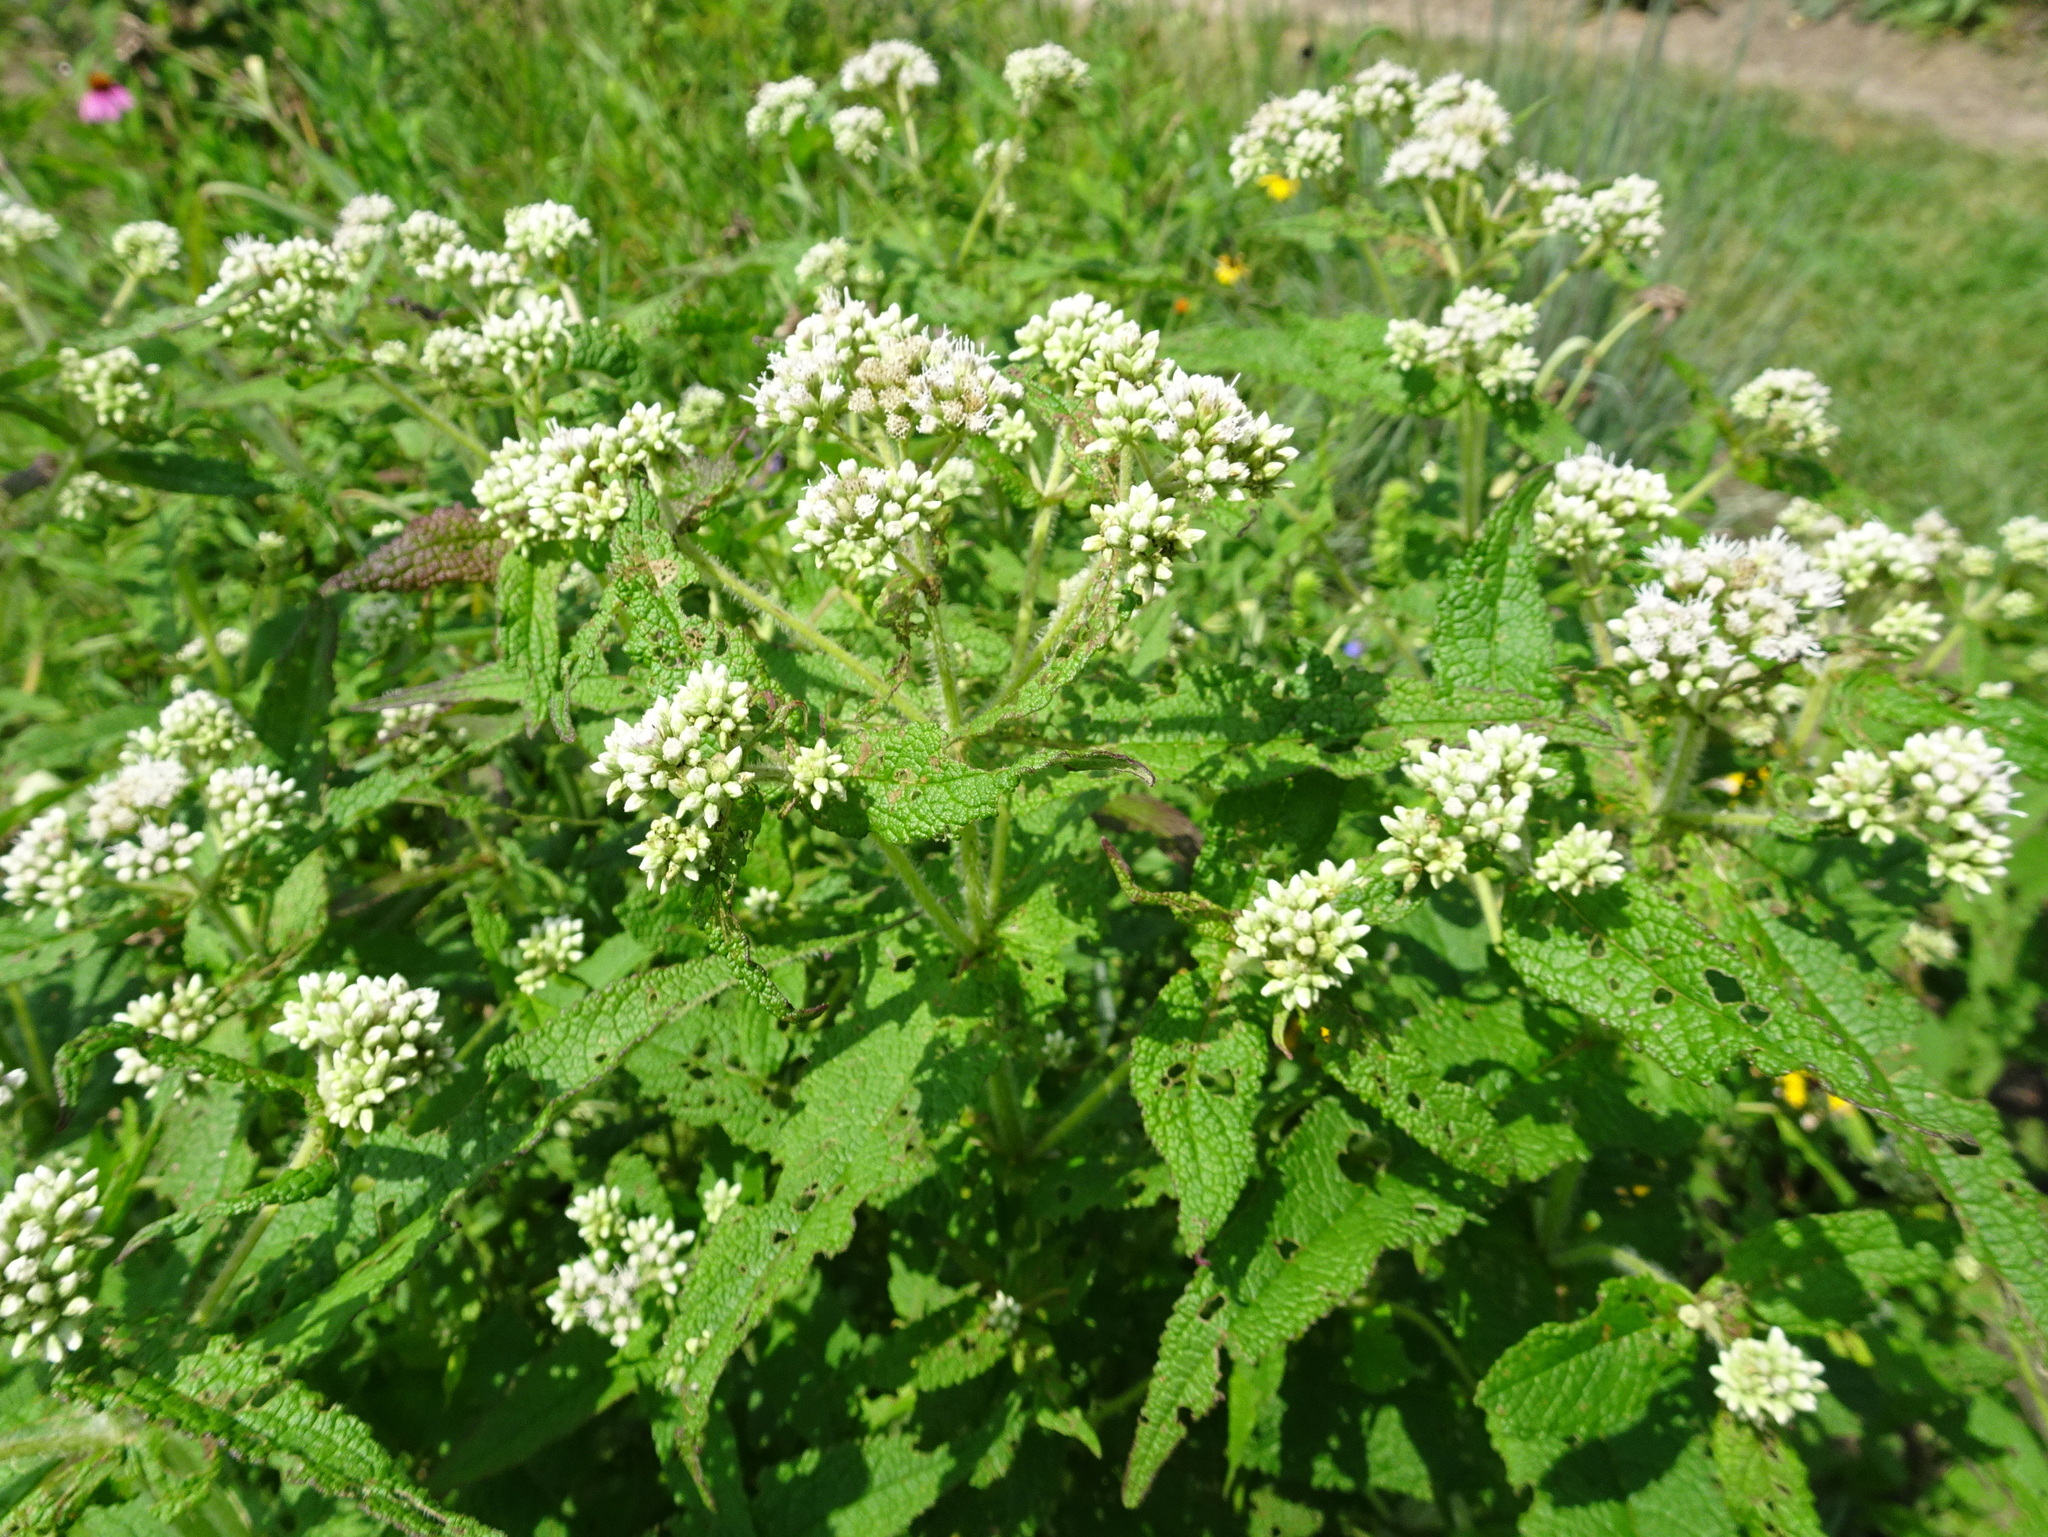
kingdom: Plantae
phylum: Tracheophyta
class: Magnoliopsida
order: Asterales
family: Asteraceae
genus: Eupatorium
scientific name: Eupatorium perfoliatum
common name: Boneset
